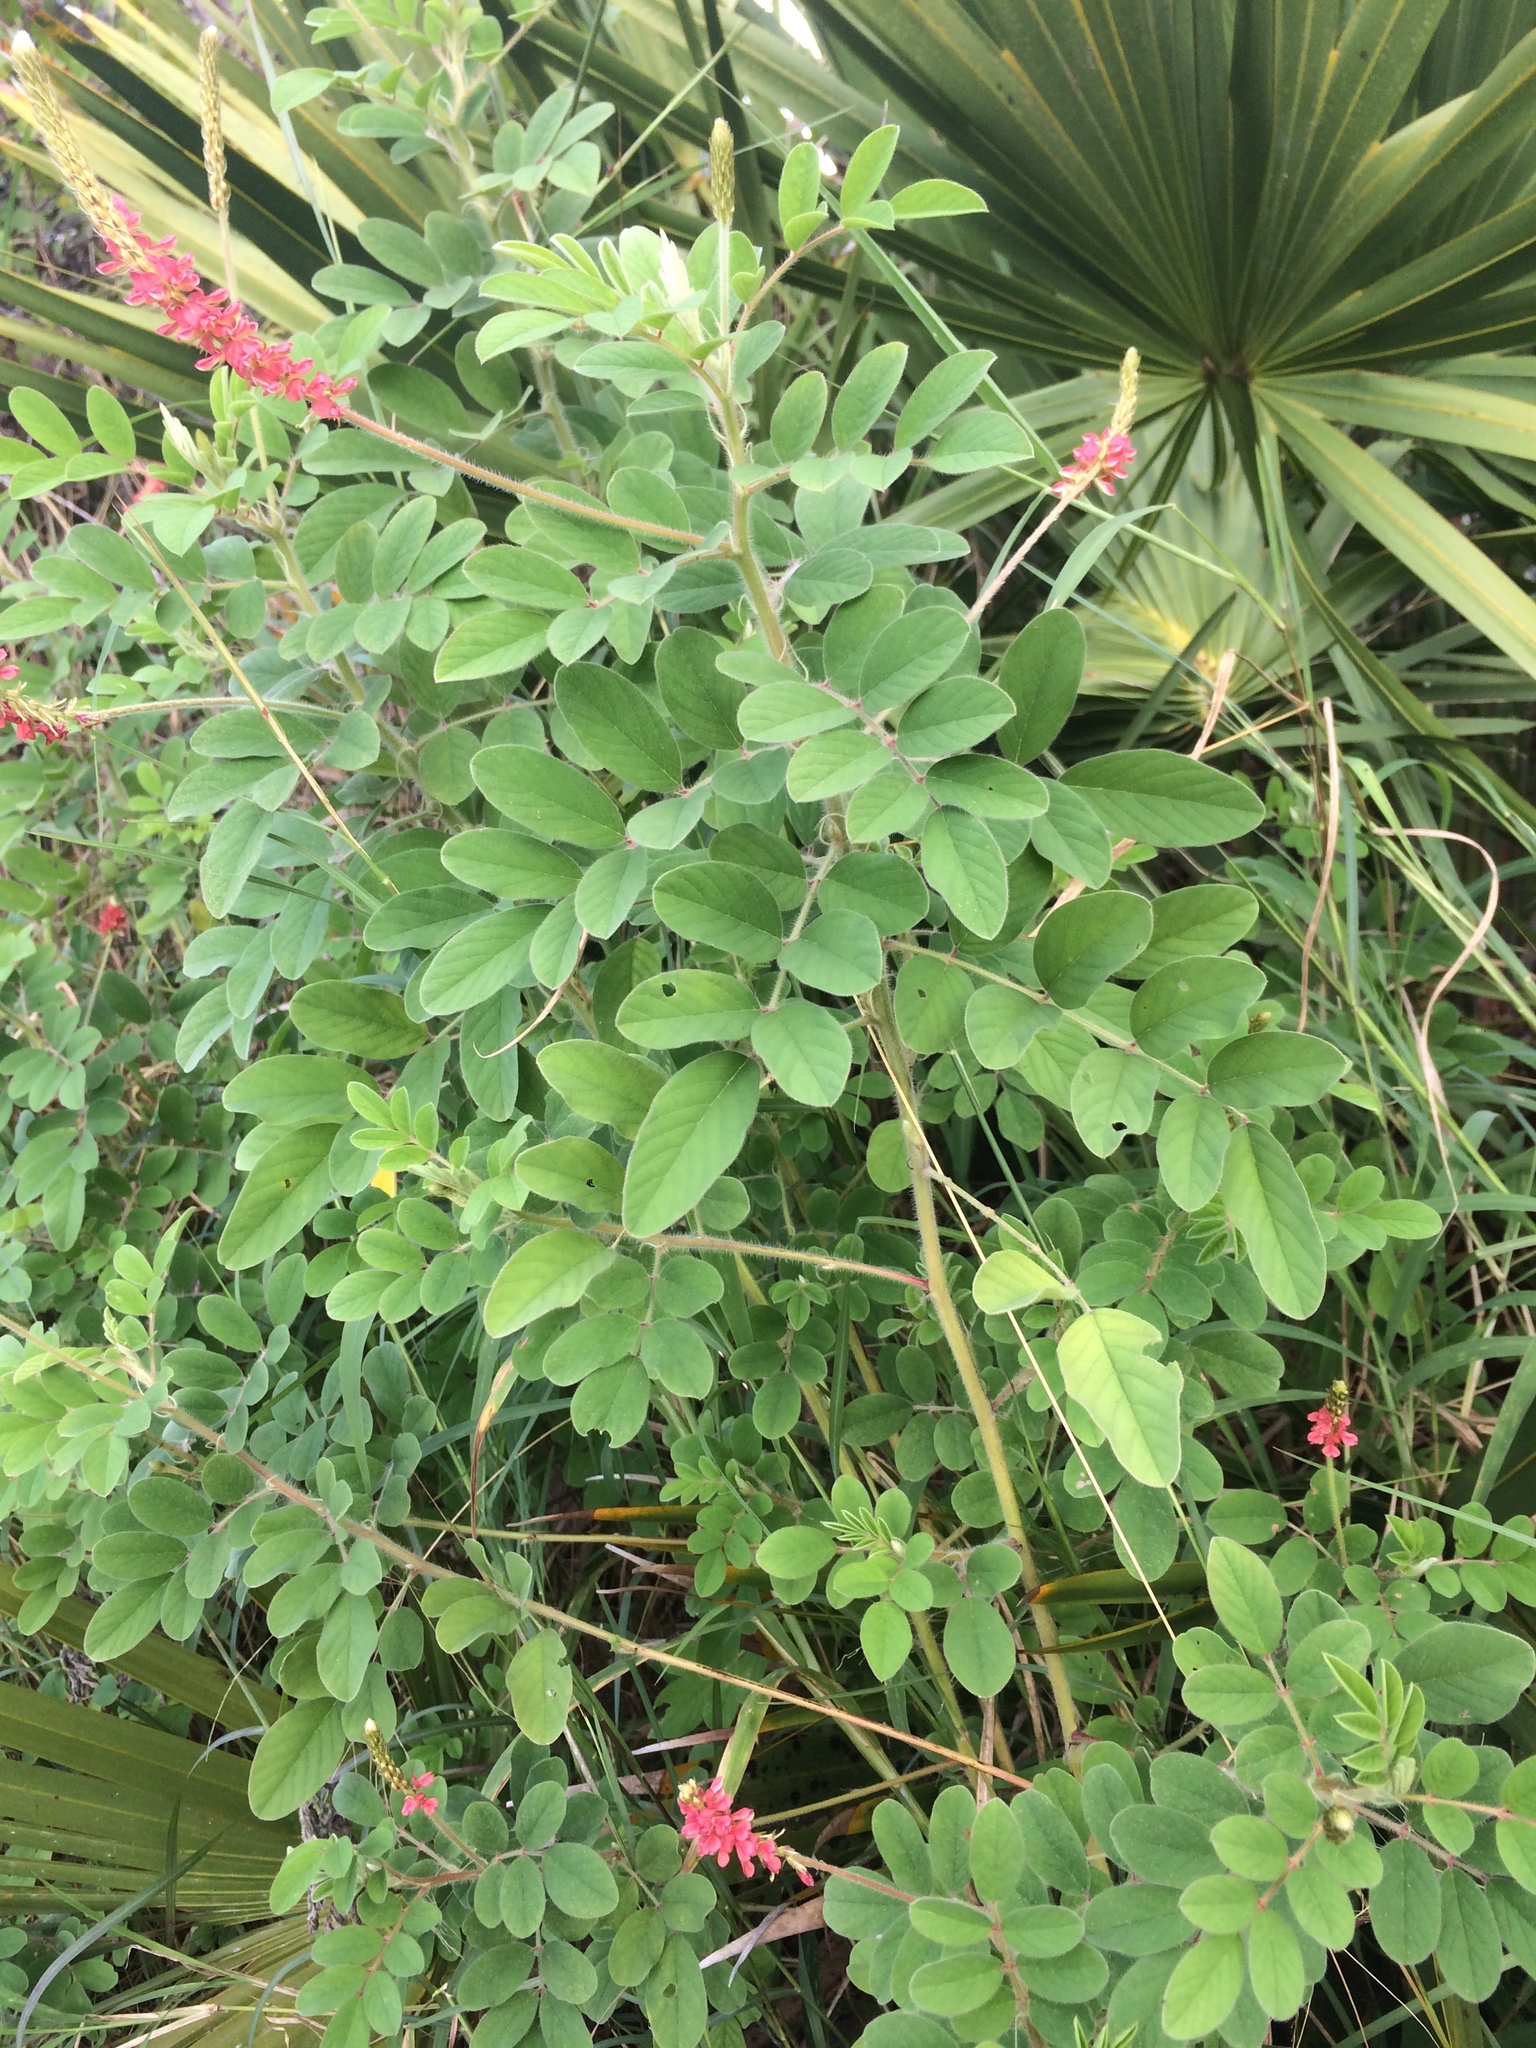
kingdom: Plantae
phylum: Tracheophyta
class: Magnoliopsida
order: Fabales
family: Fabaceae
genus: Indigofera
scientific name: Indigofera hirsuta
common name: Hairy indigo
